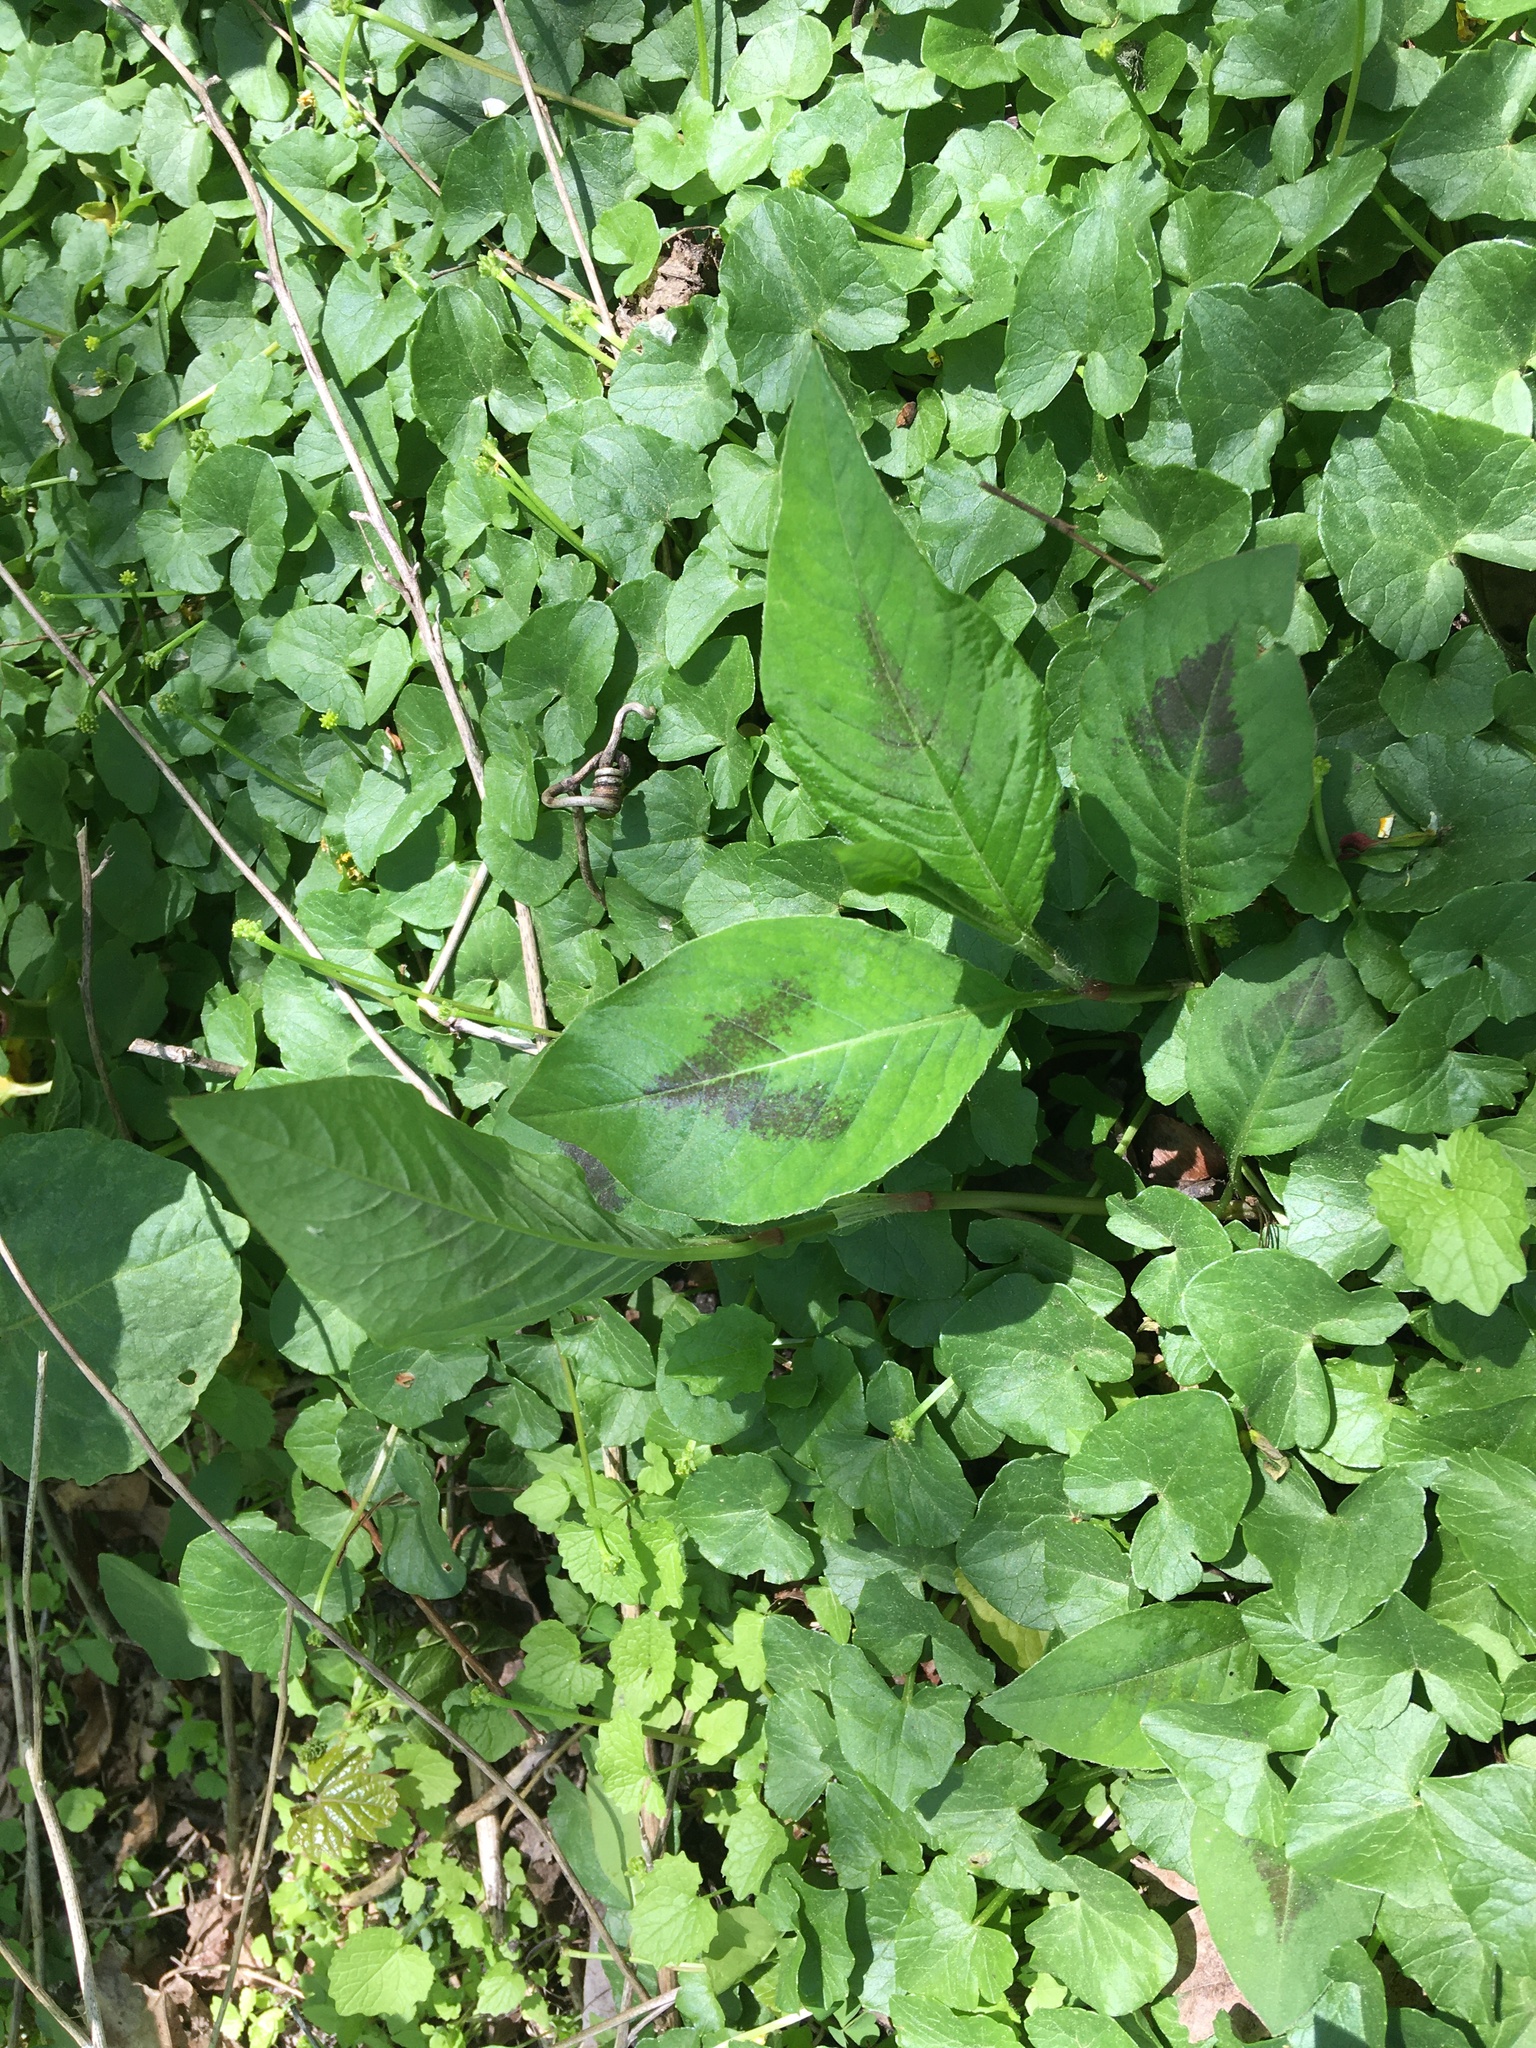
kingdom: Plantae
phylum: Tracheophyta
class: Magnoliopsida
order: Caryophyllales
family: Polygonaceae
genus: Persicaria
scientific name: Persicaria virginiana
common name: Jumpseed
